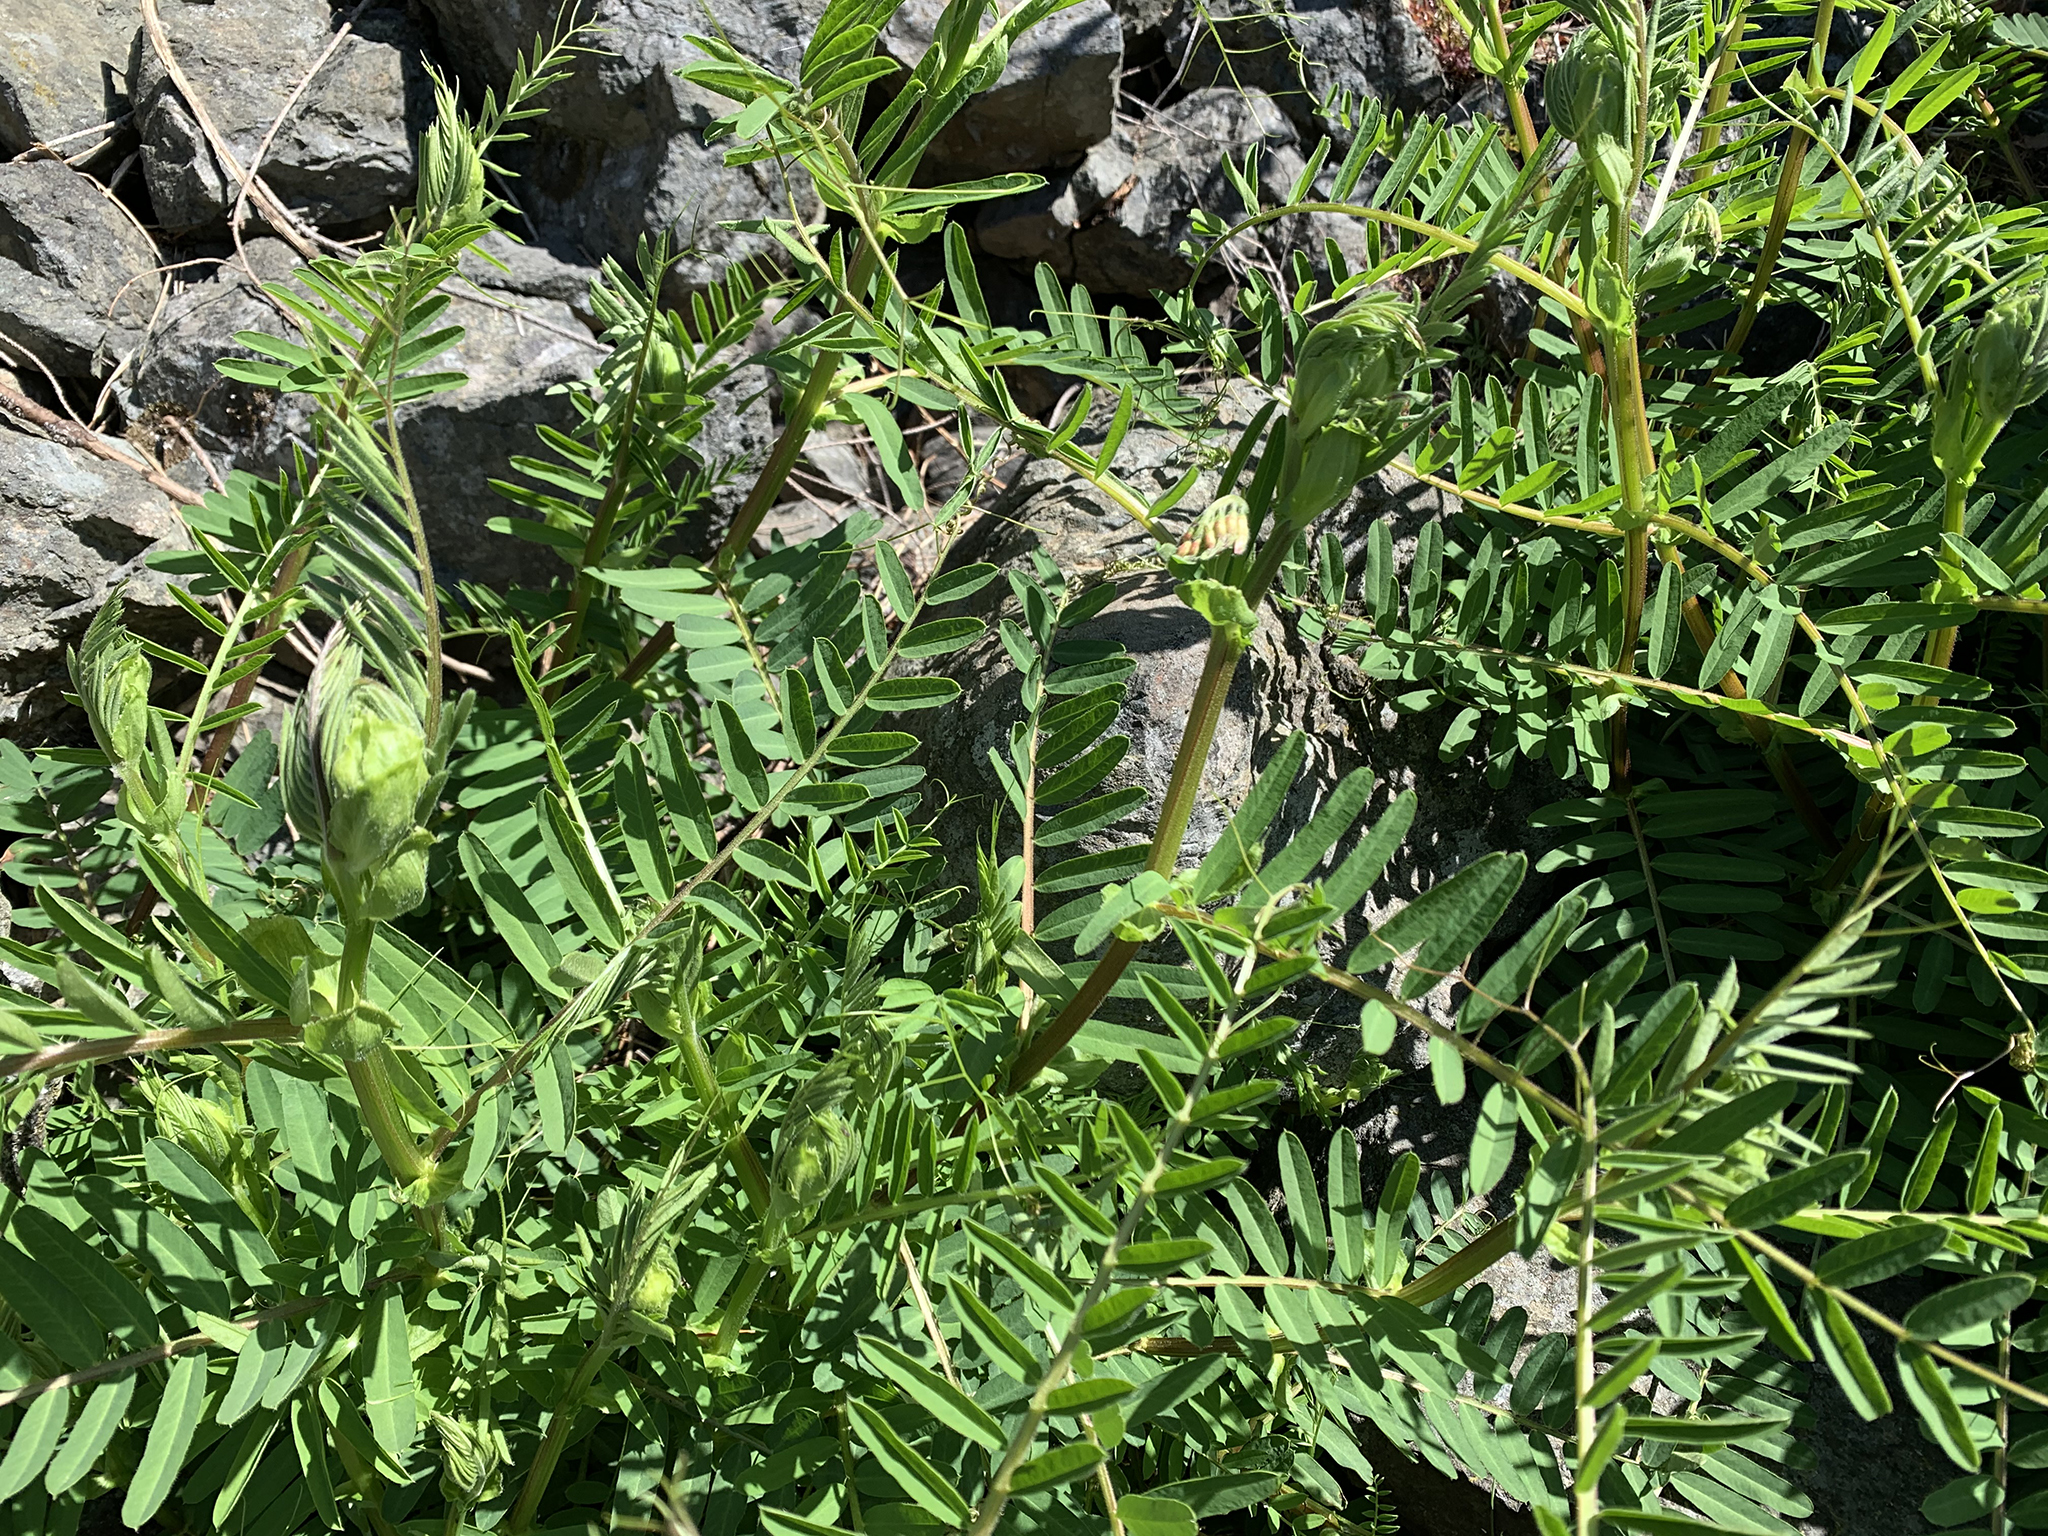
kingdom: Plantae
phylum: Tracheophyta
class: Magnoliopsida
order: Fabales
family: Fabaceae
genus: Vicia
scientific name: Vicia
